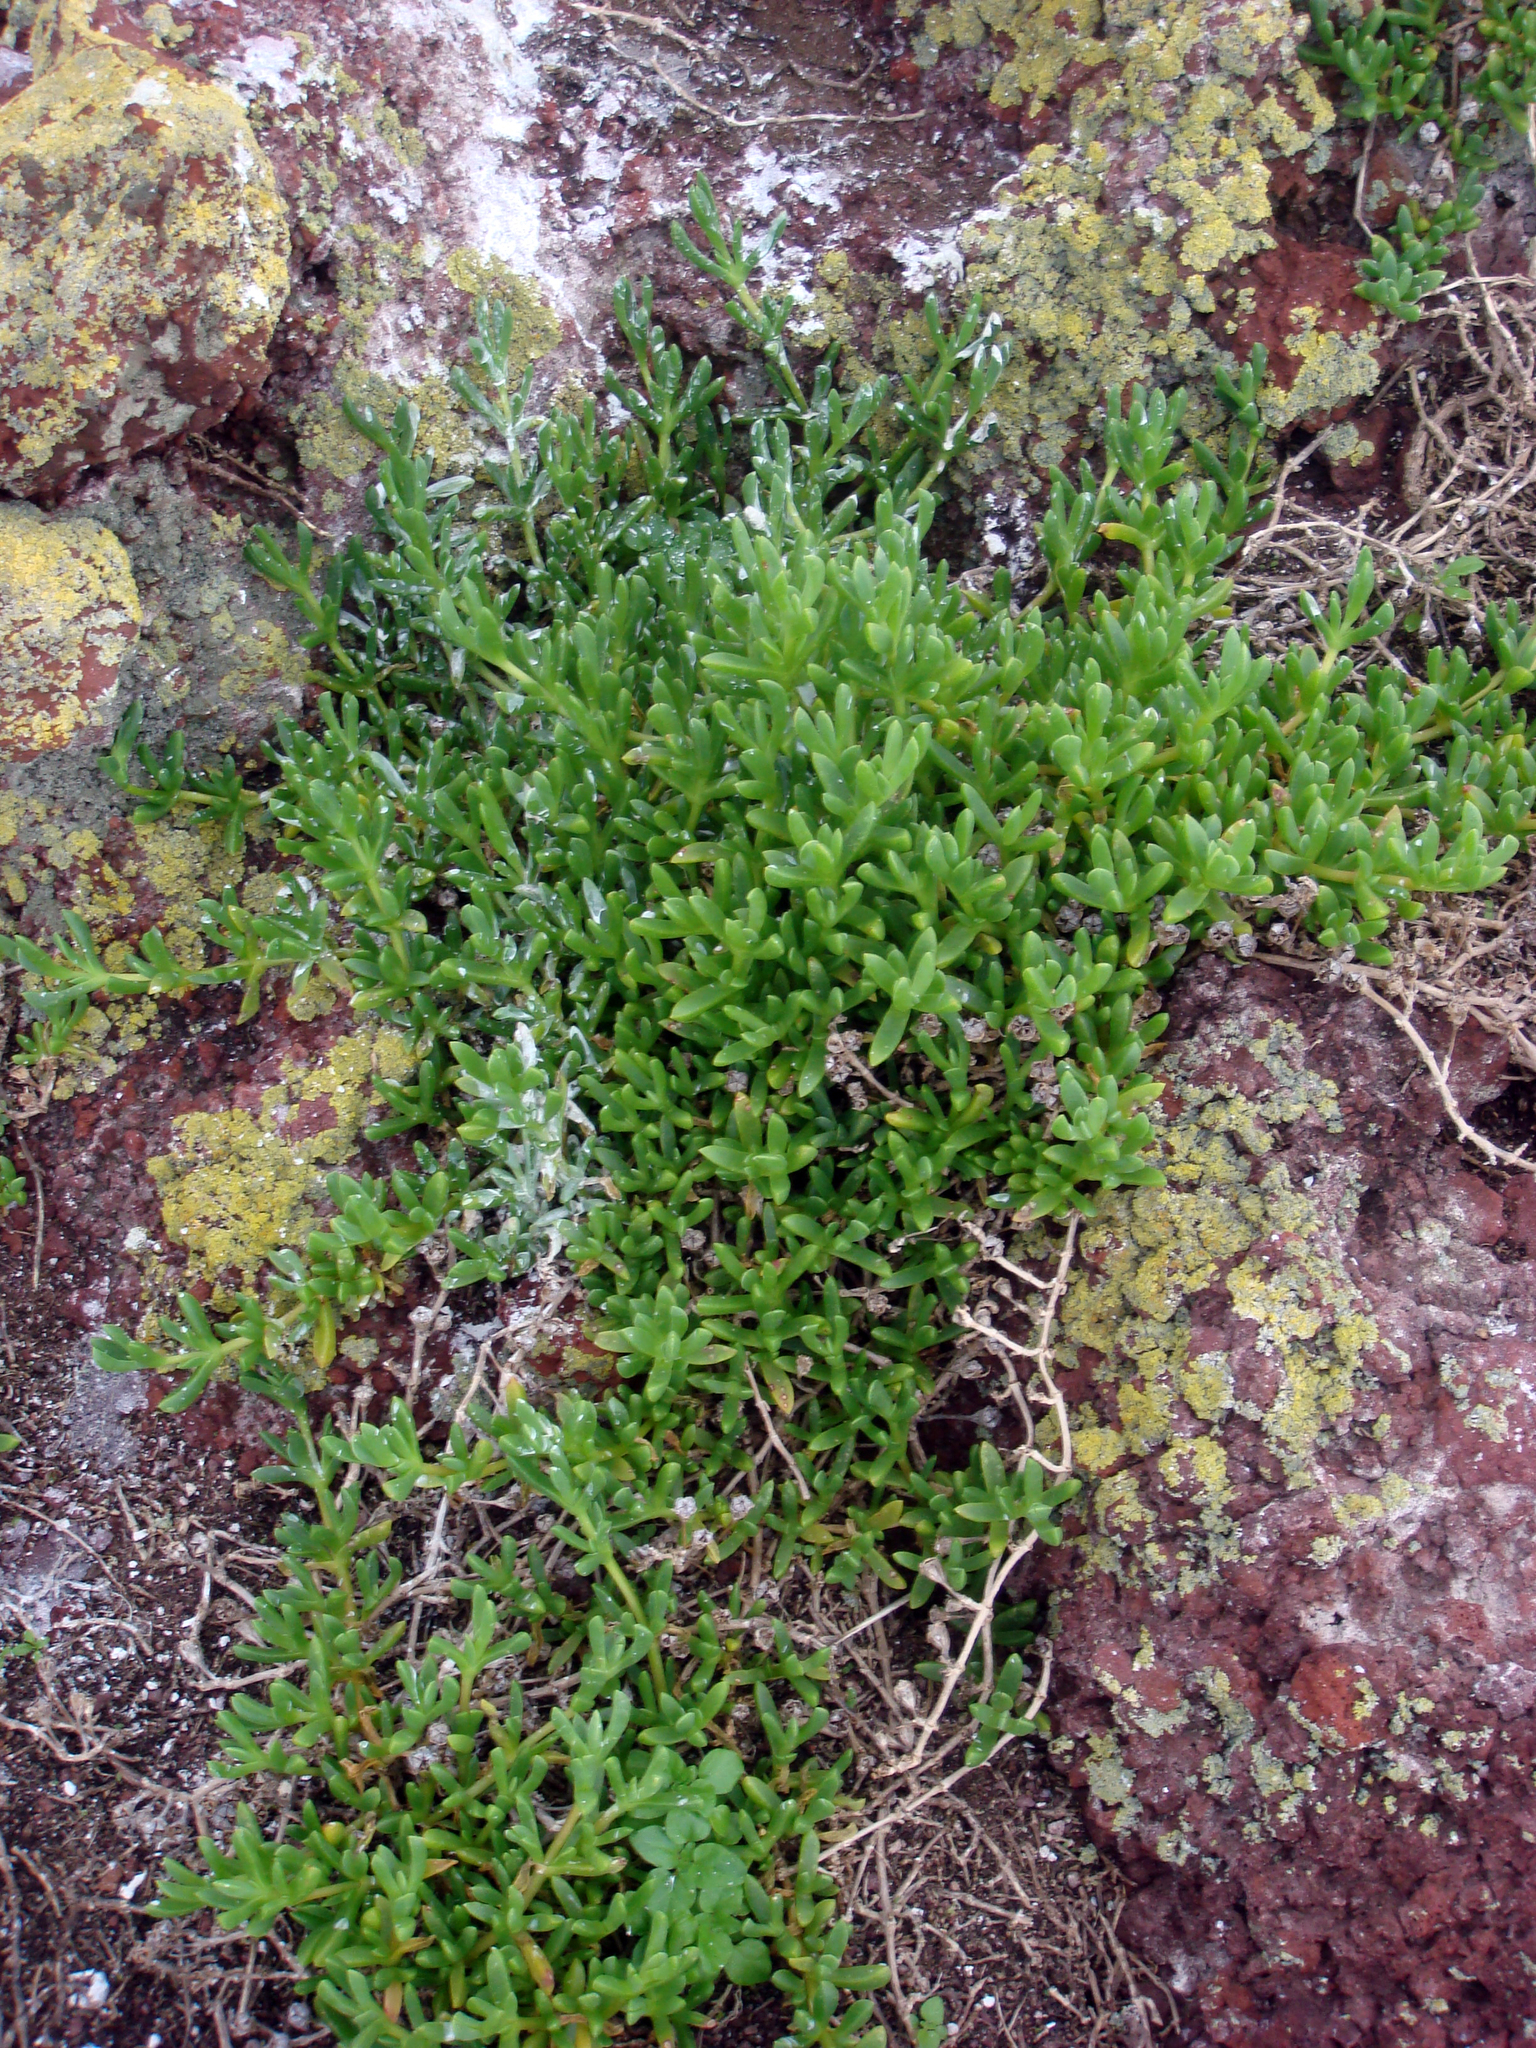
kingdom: Plantae
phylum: Tracheophyta
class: Magnoliopsida
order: Caryophyllales
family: Aizoaceae
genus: Disphyma
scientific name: Disphyma australe
